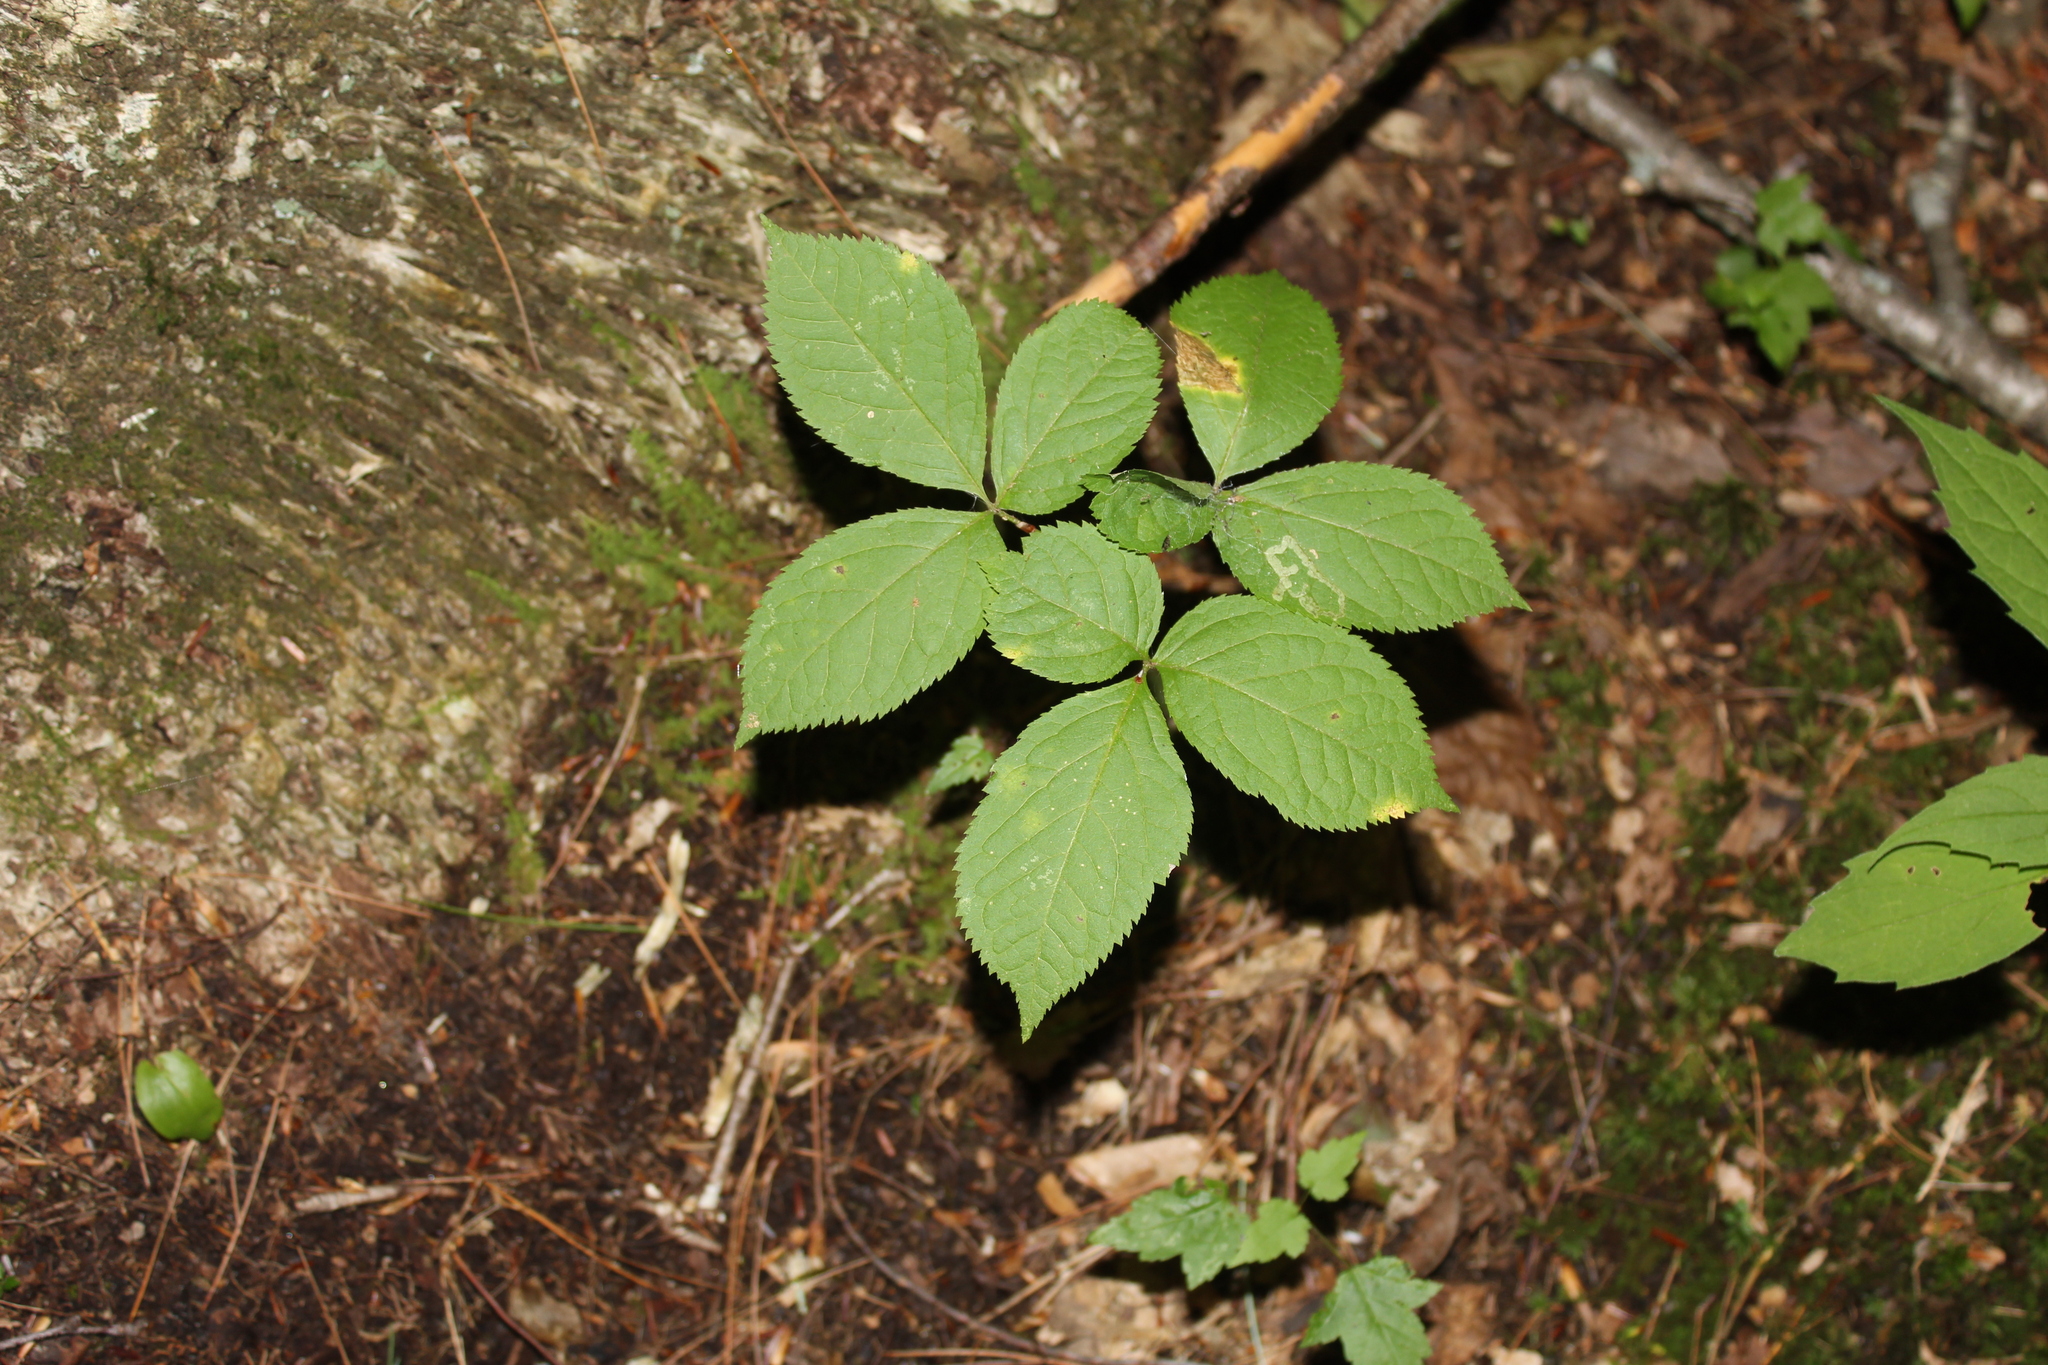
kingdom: Plantae
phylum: Tracheophyta
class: Magnoliopsida
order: Apiales
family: Araliaceae
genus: Aralia
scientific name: Aralia nudicaulis
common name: Wild sarsaparilla
